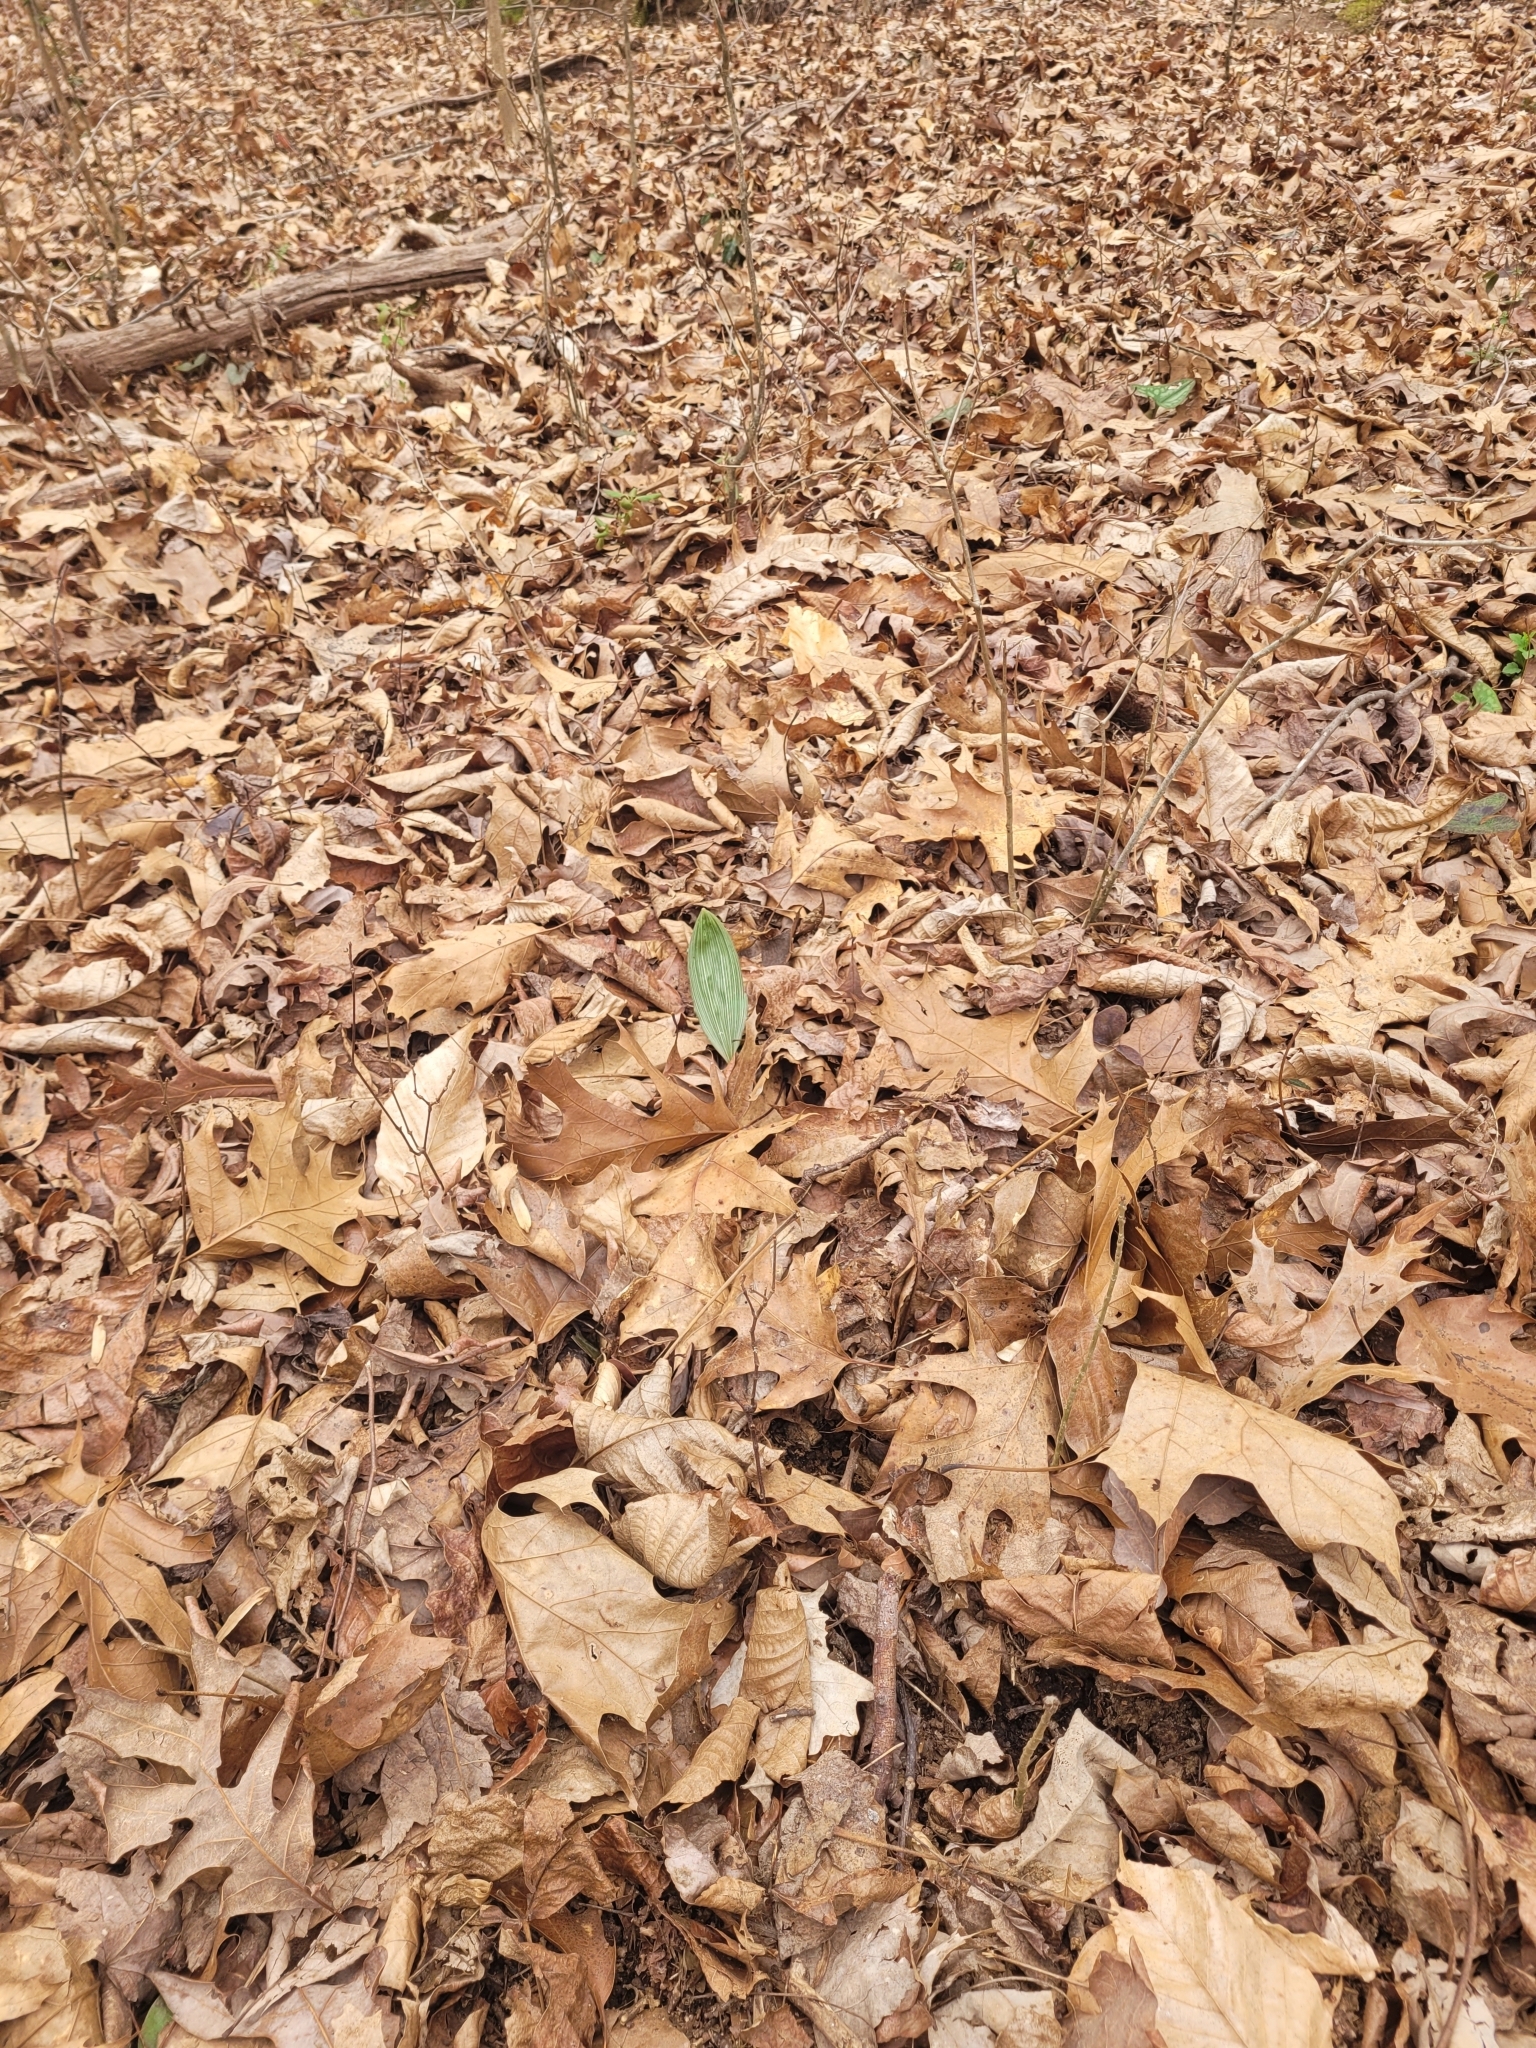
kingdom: Plantae
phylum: Tracheophyta
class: Liliopsida
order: Asparagales
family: Orchidaceae
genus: Aplectrum
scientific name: Aplectrum hyemale
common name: Adam-and-eve
